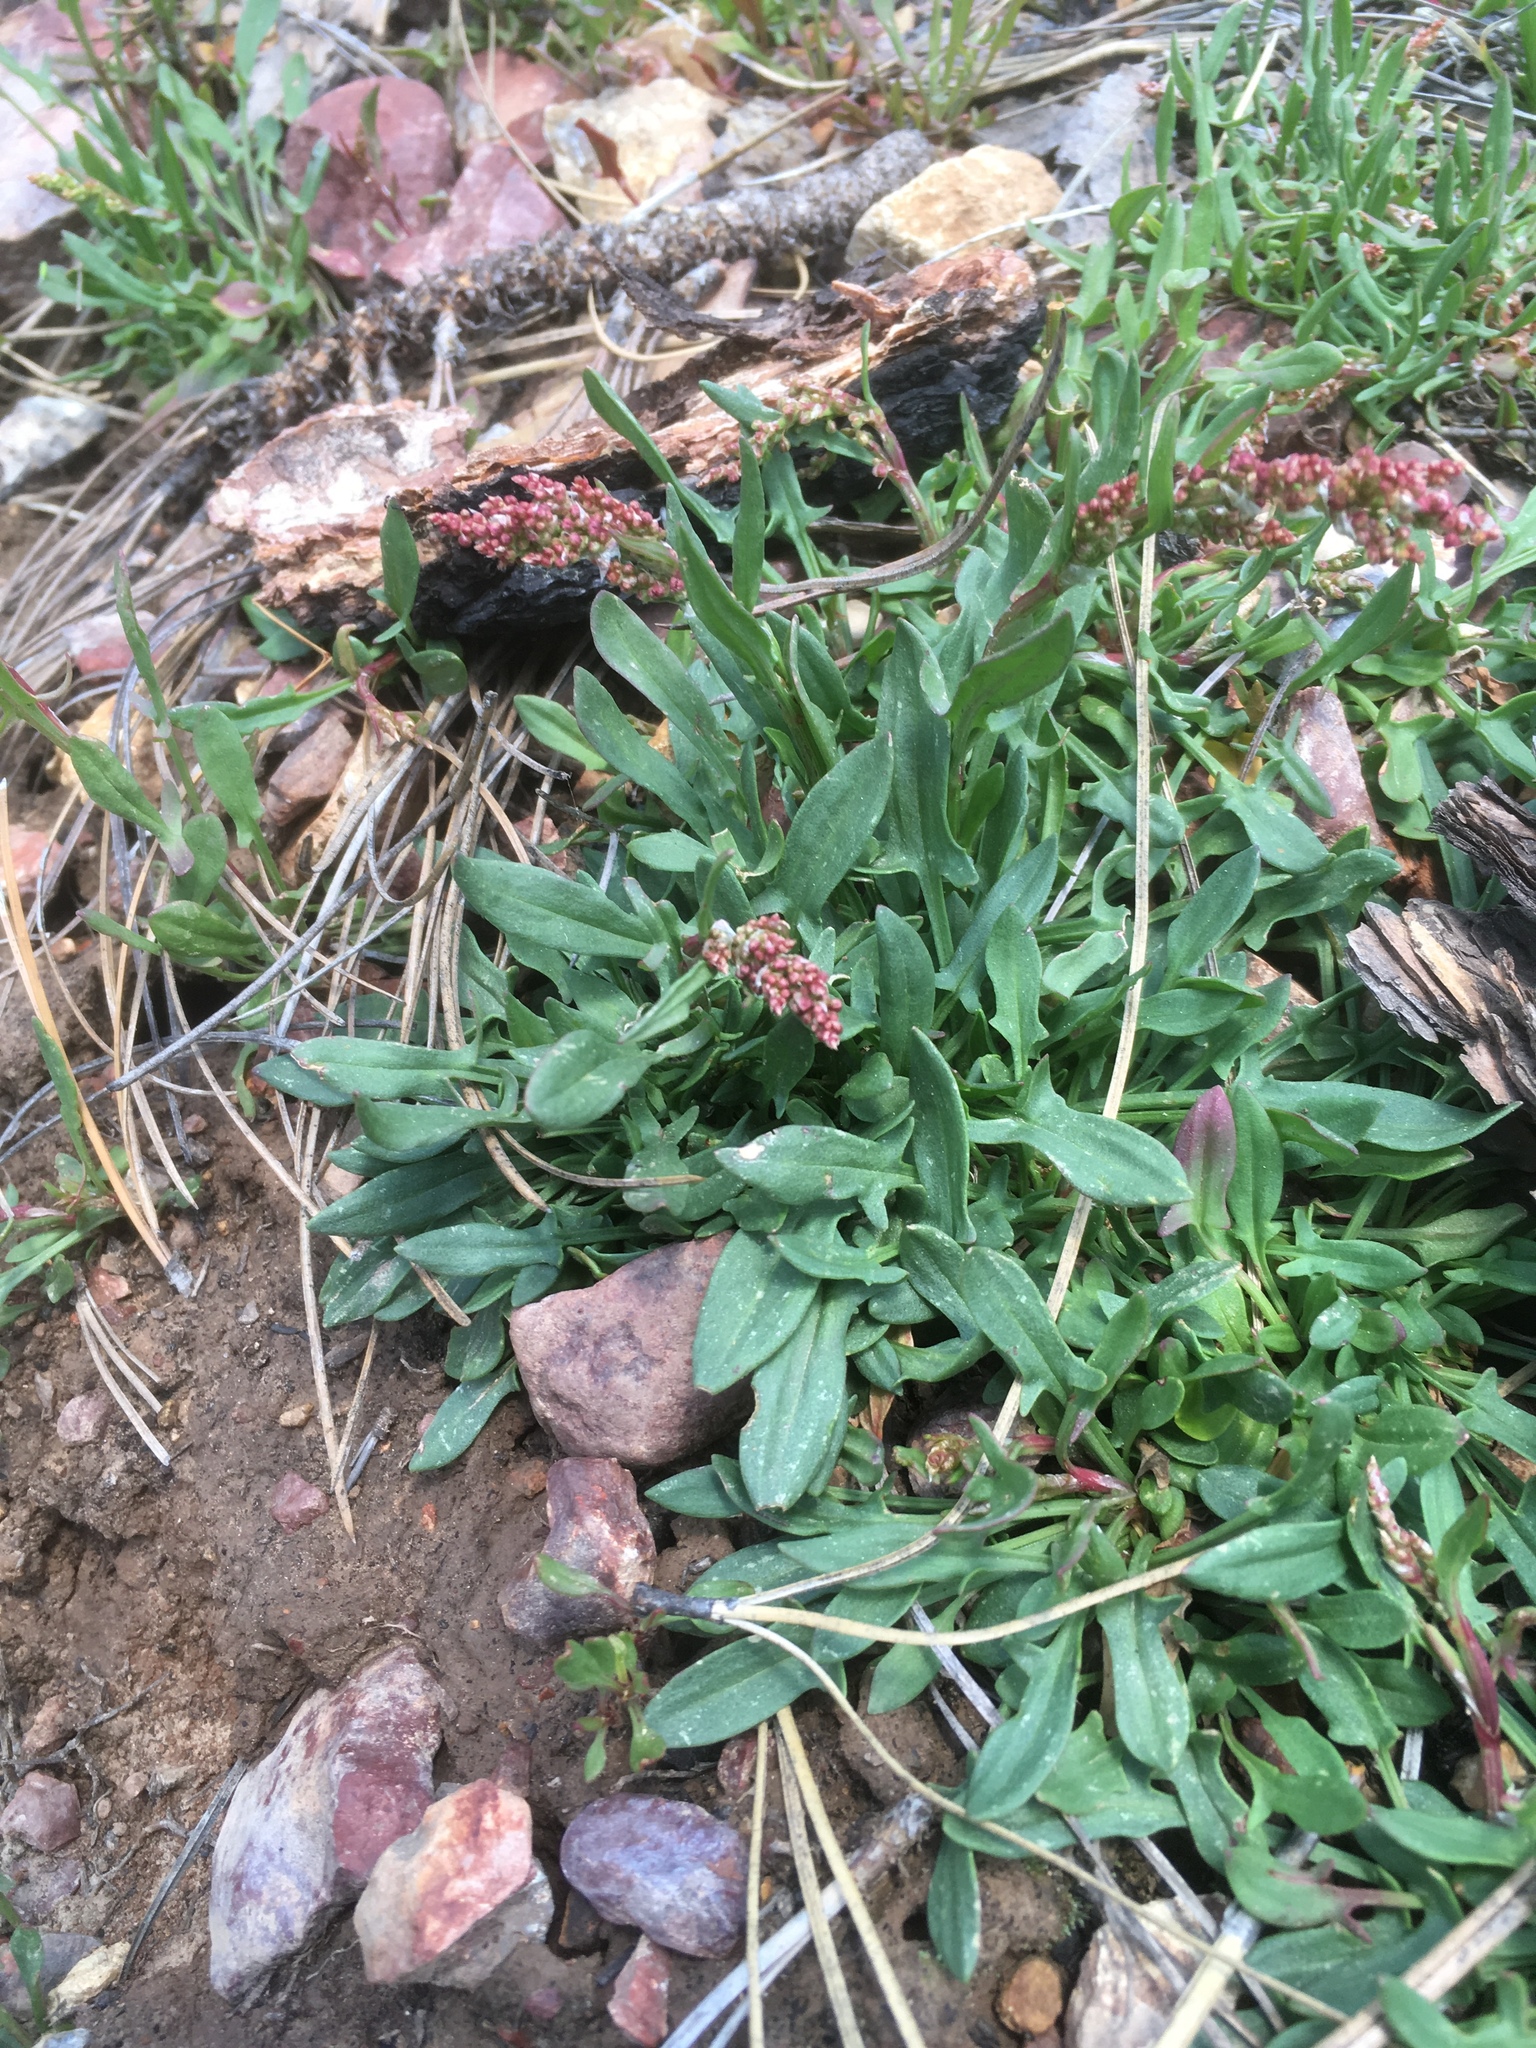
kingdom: Plantae
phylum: Tracheophyta
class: Magnoliopsida
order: Caryophyllales
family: Polygonaceae
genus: Rumex
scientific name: Rumex acetosella
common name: Common sheep sorrel
